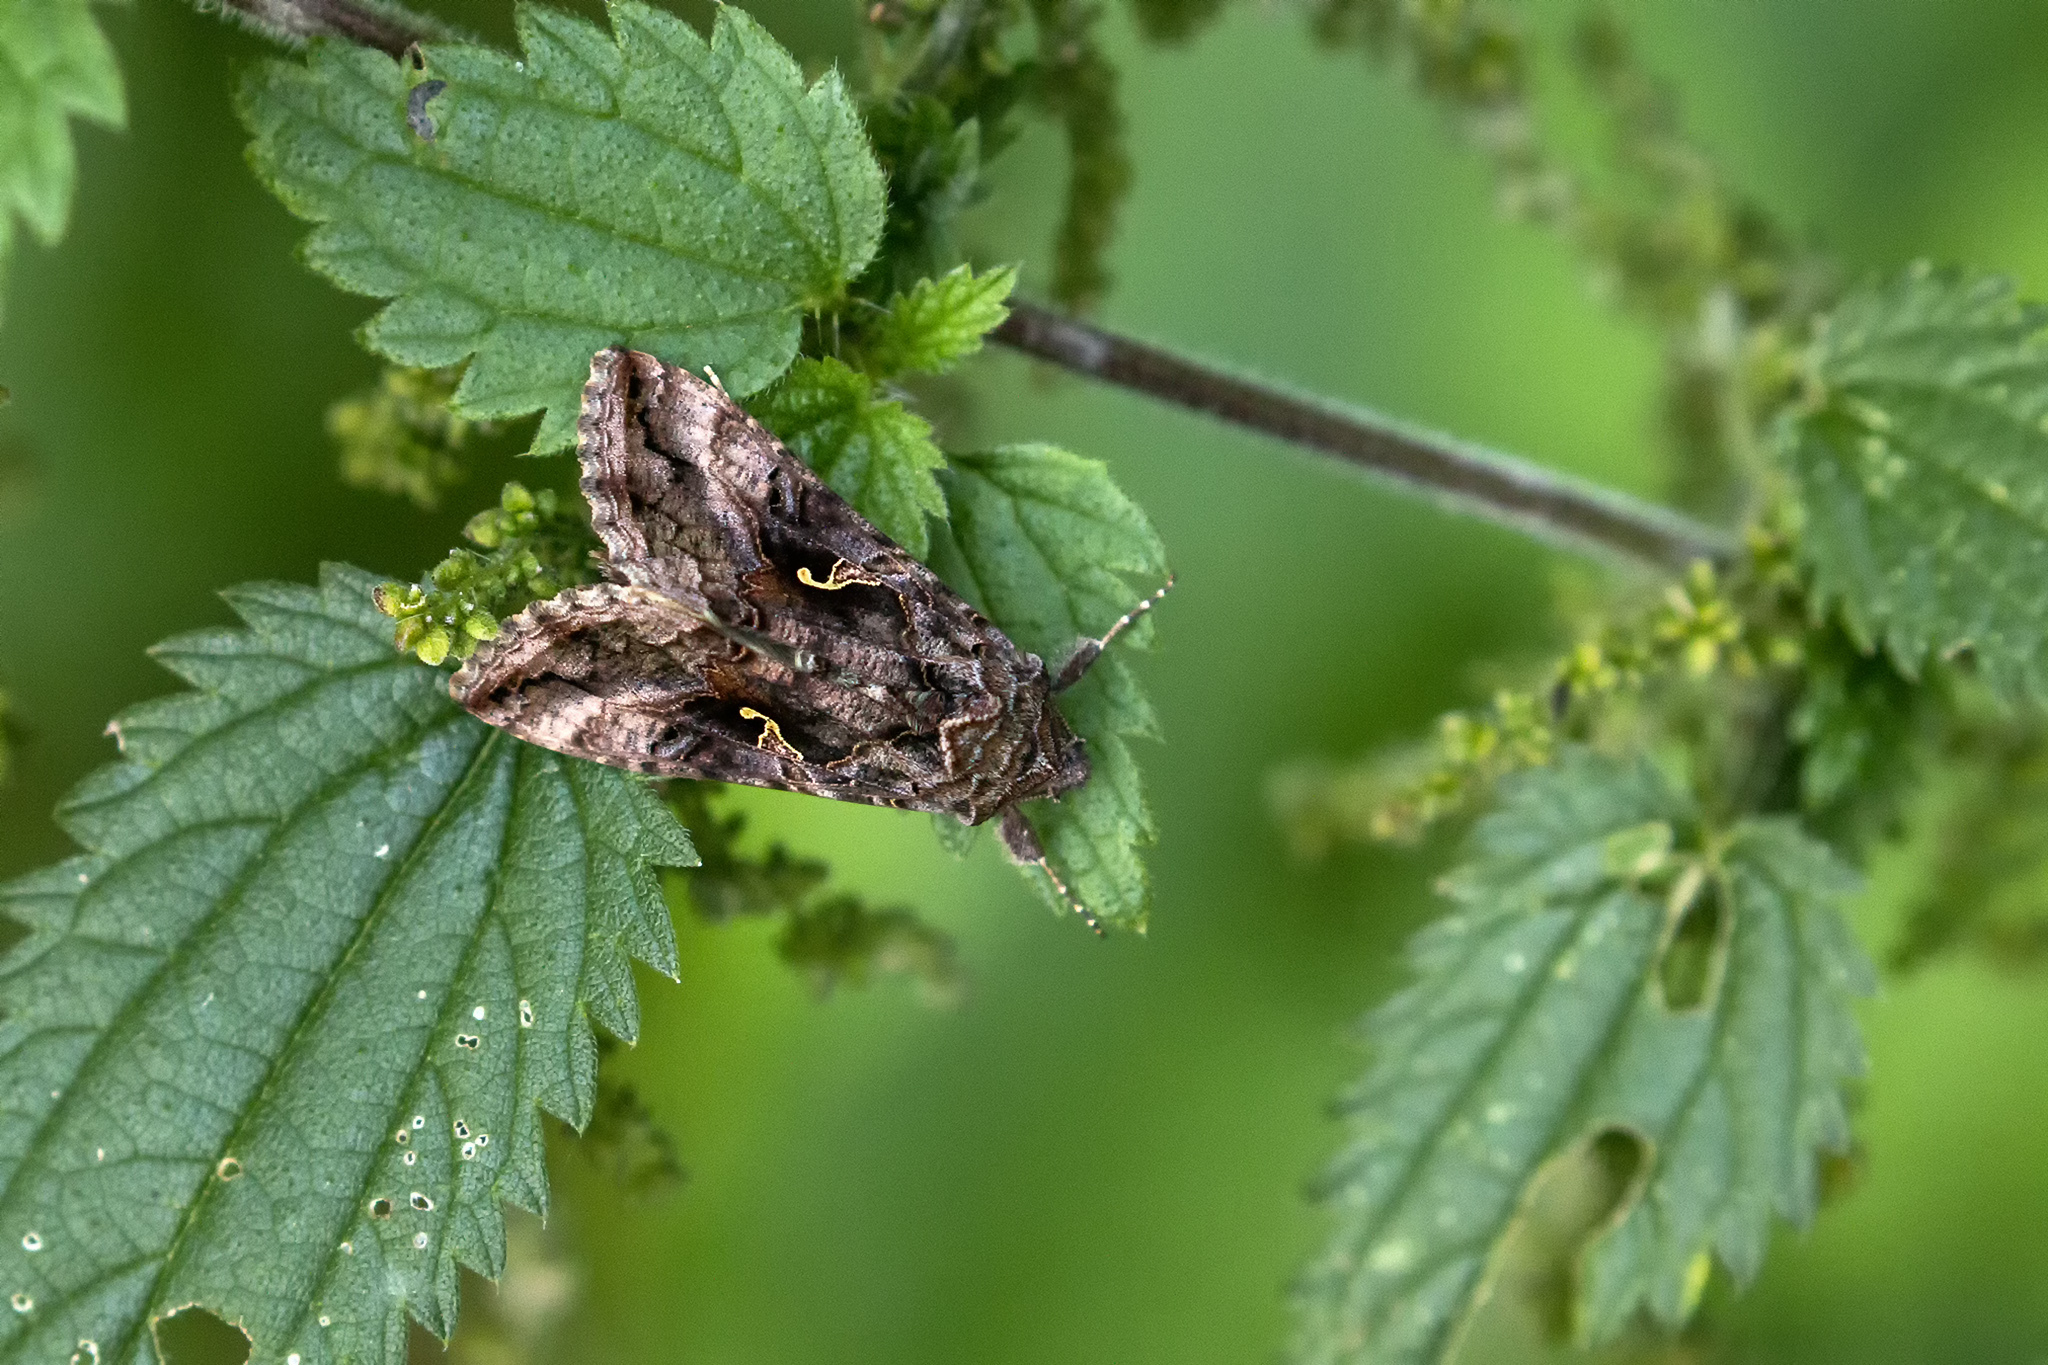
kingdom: Animalia
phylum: Arthropoda
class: Insecta
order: Lepidoptera
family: Noctuidae
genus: Autographa
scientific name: Autographa gamma
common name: Silver y
